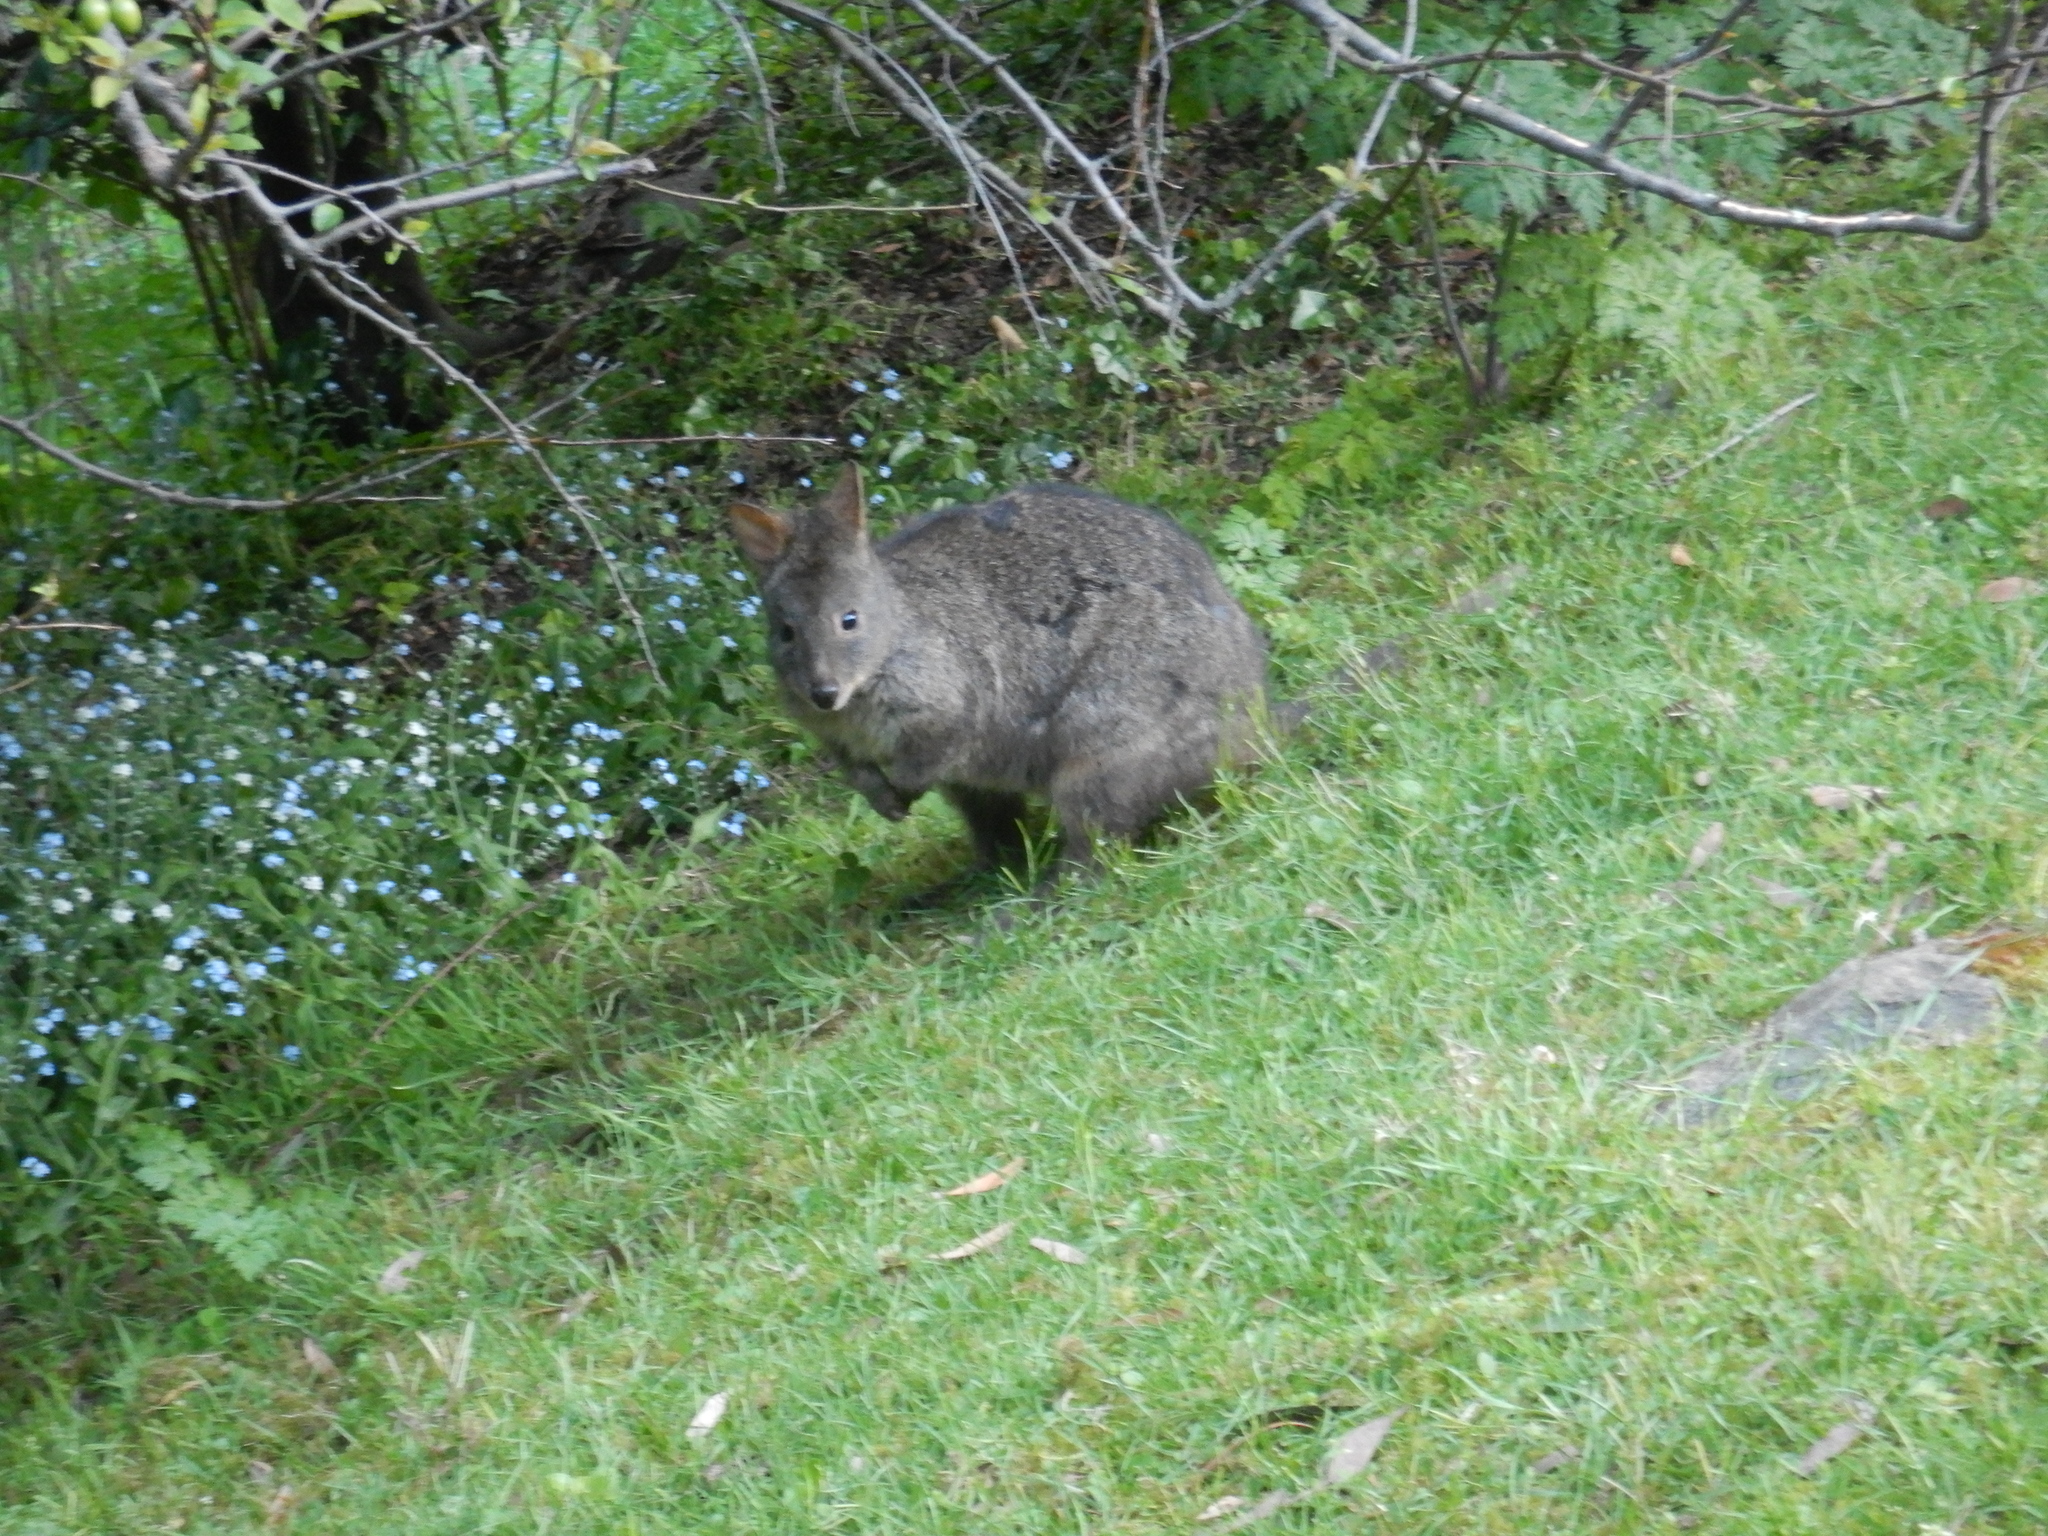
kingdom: Animalia
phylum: Chordata
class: Mammalia
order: Diprotodontia
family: Macropodidae
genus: Thylogale
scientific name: Thylogale billardierii
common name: Tasmanian pademelon
